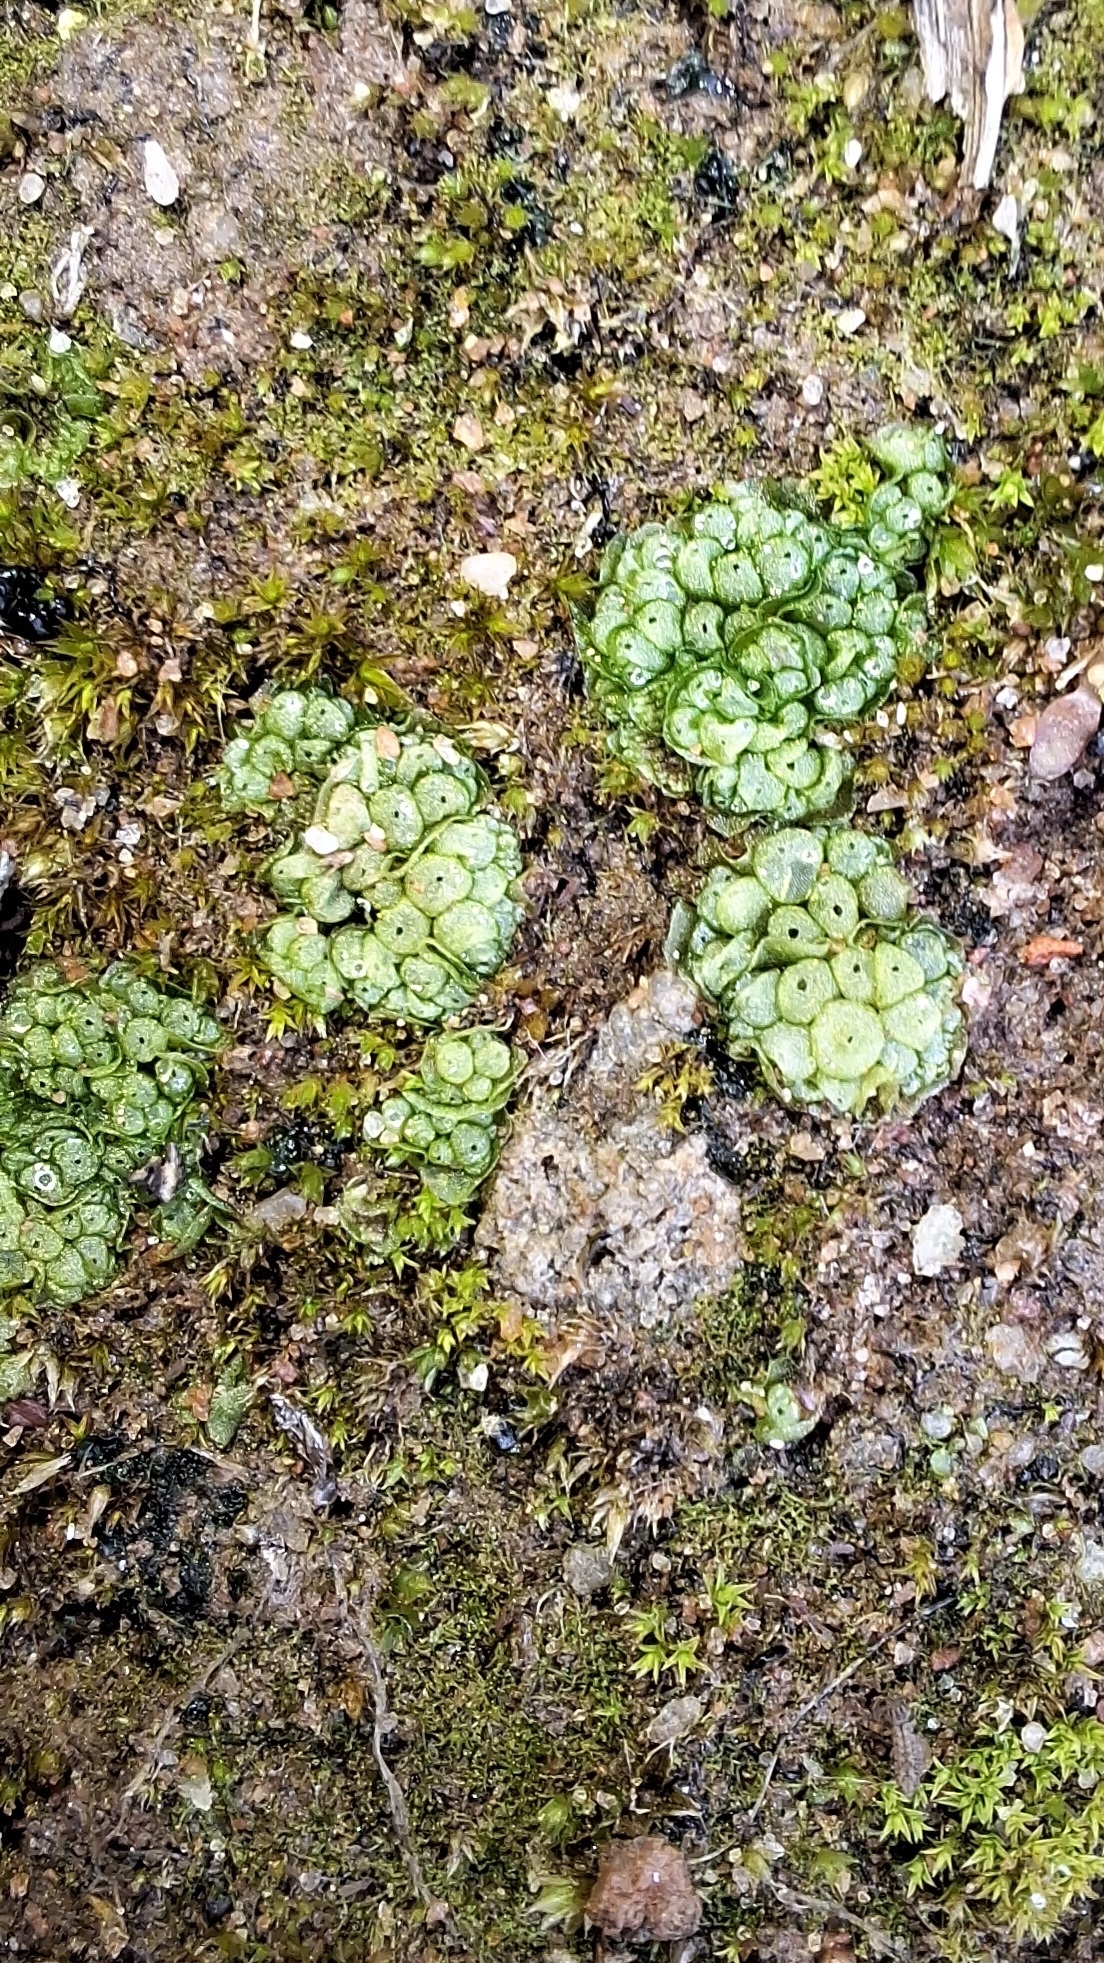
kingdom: Plantae
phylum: Marchantiophyta
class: Marchantiopsida
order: Sphaerocarpales
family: Sphaerocarpaceae
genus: Sphaerocarpos
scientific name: Sphaerocarpos texanus
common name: Texas balloonwort
